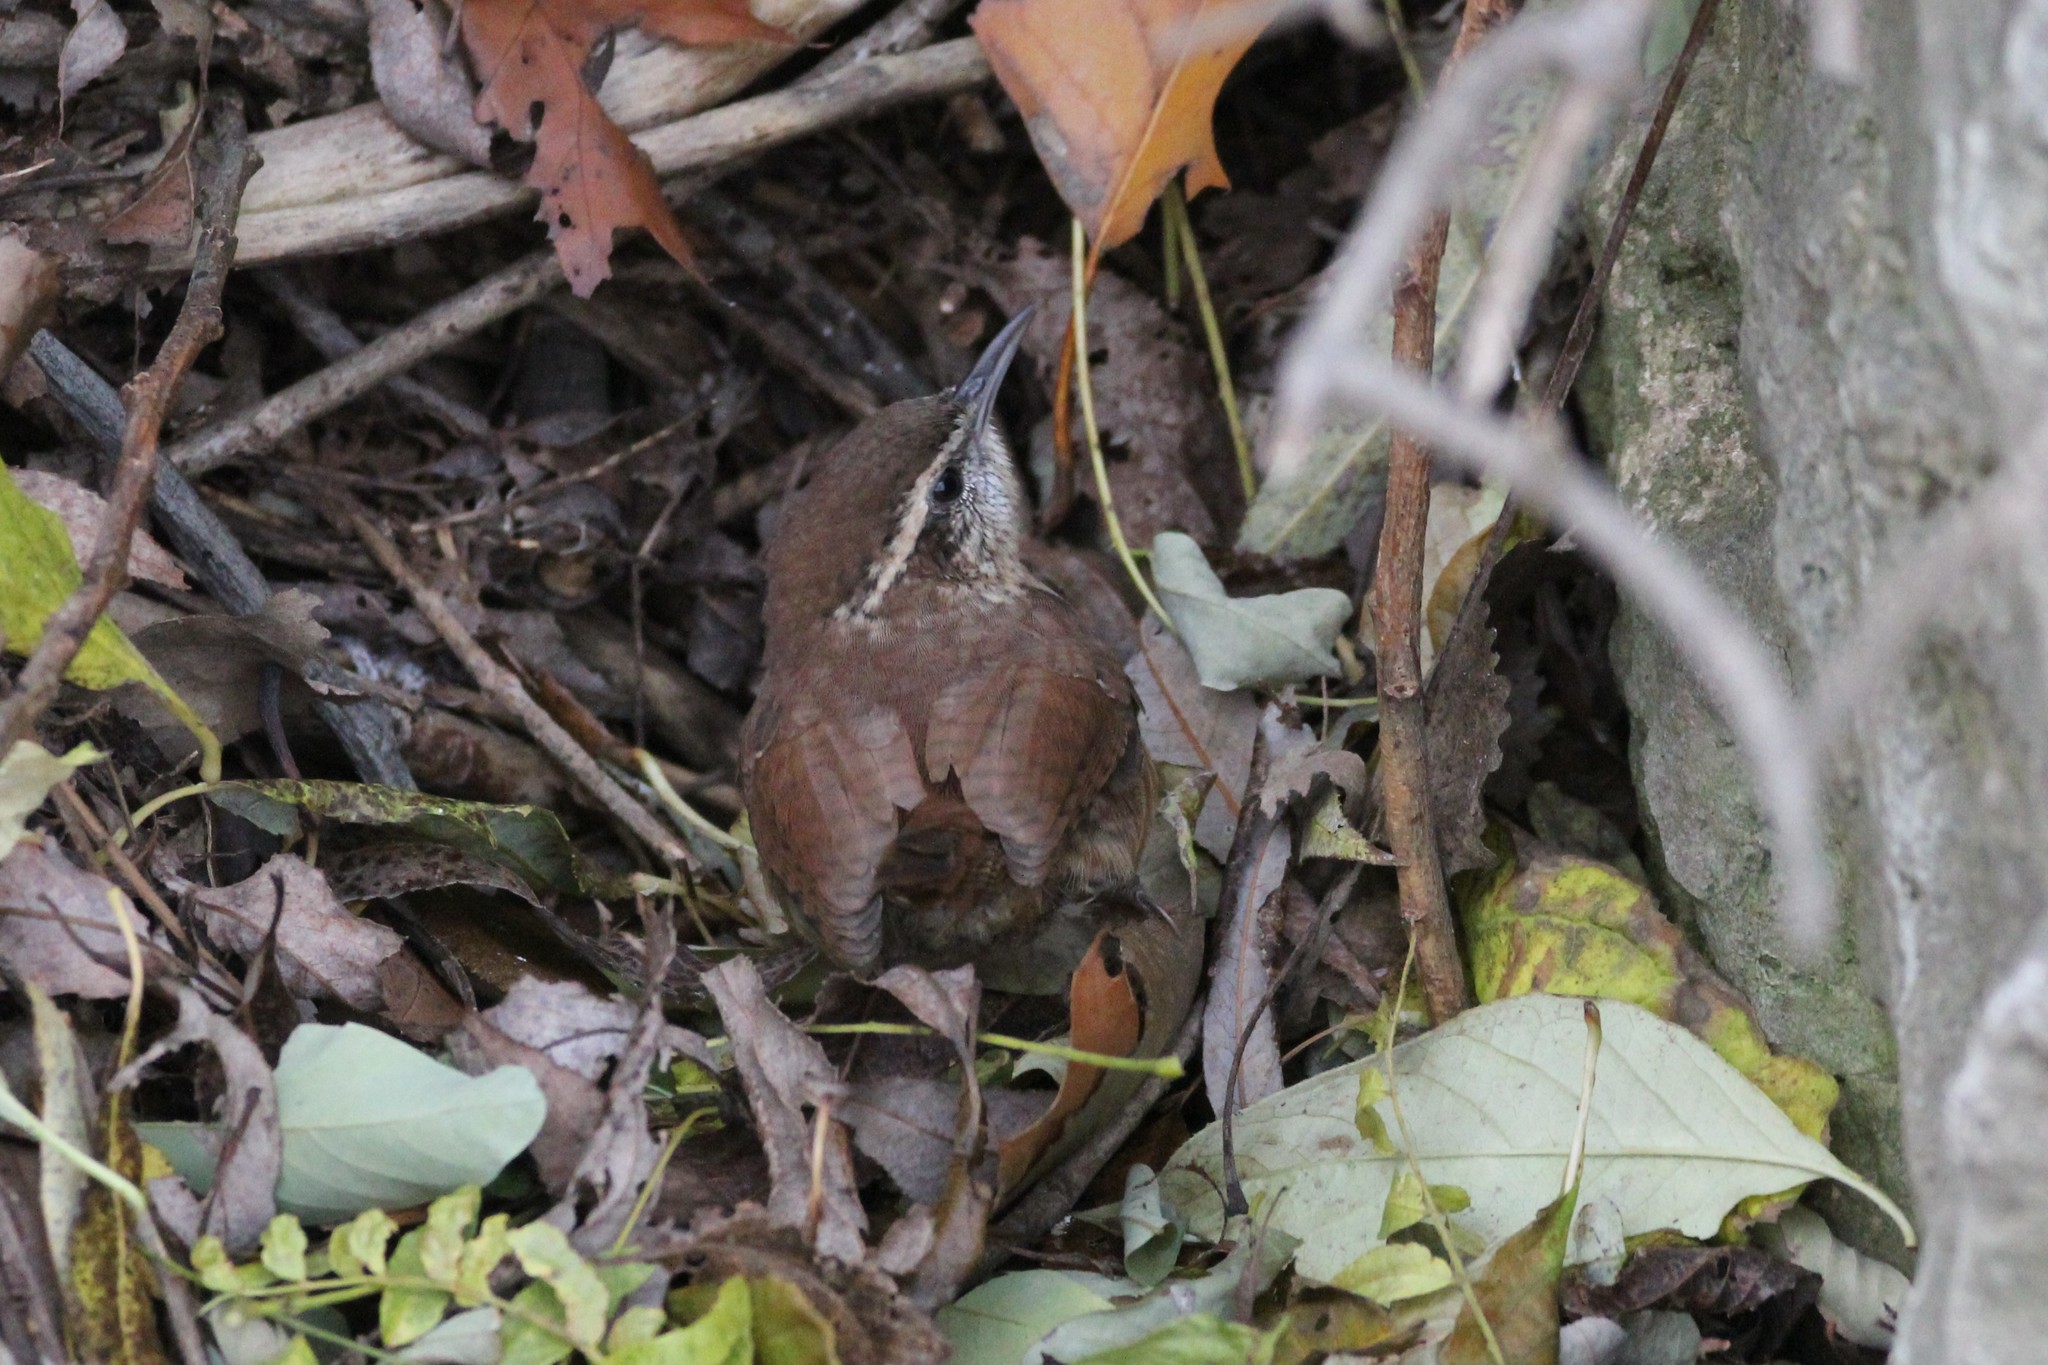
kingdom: Animalia
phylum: Chordata
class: Aves
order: Passeriformes
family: Troglodytidae
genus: Thryothorus
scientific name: Thryothorus ludovicianus
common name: Carolina wren
